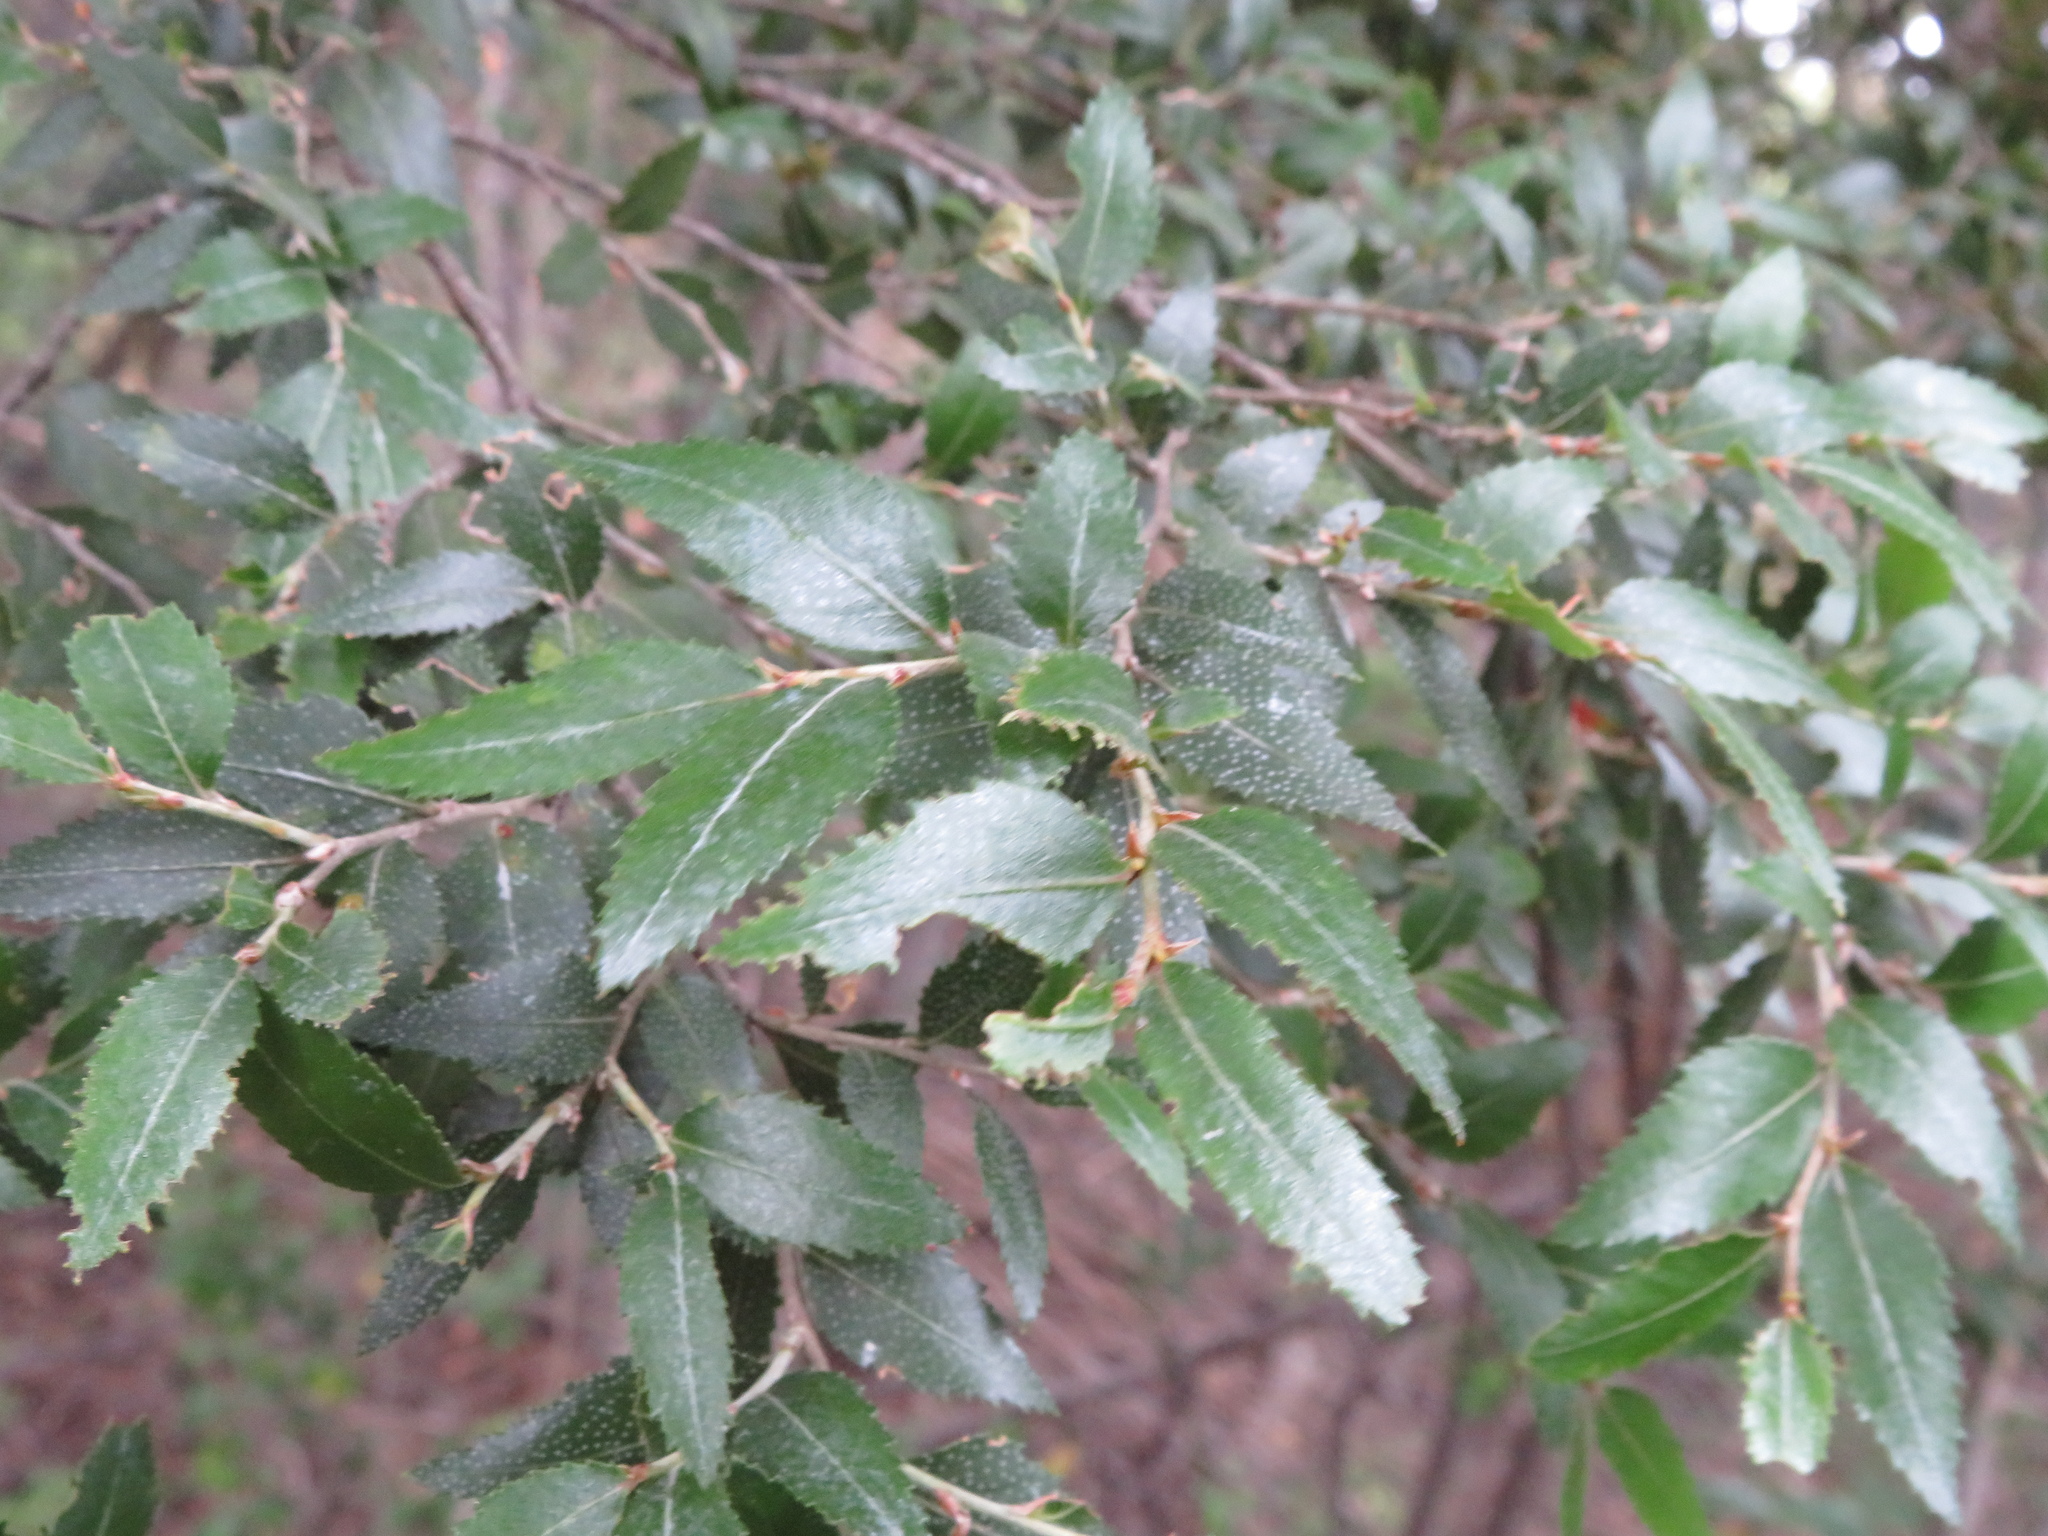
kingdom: Plantae
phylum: Tracheophyta
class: Magnoliopsida
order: Fagales
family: Nothofagaceae
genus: Nothofagus
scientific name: Nothofagus dombeyi
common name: Coigue
